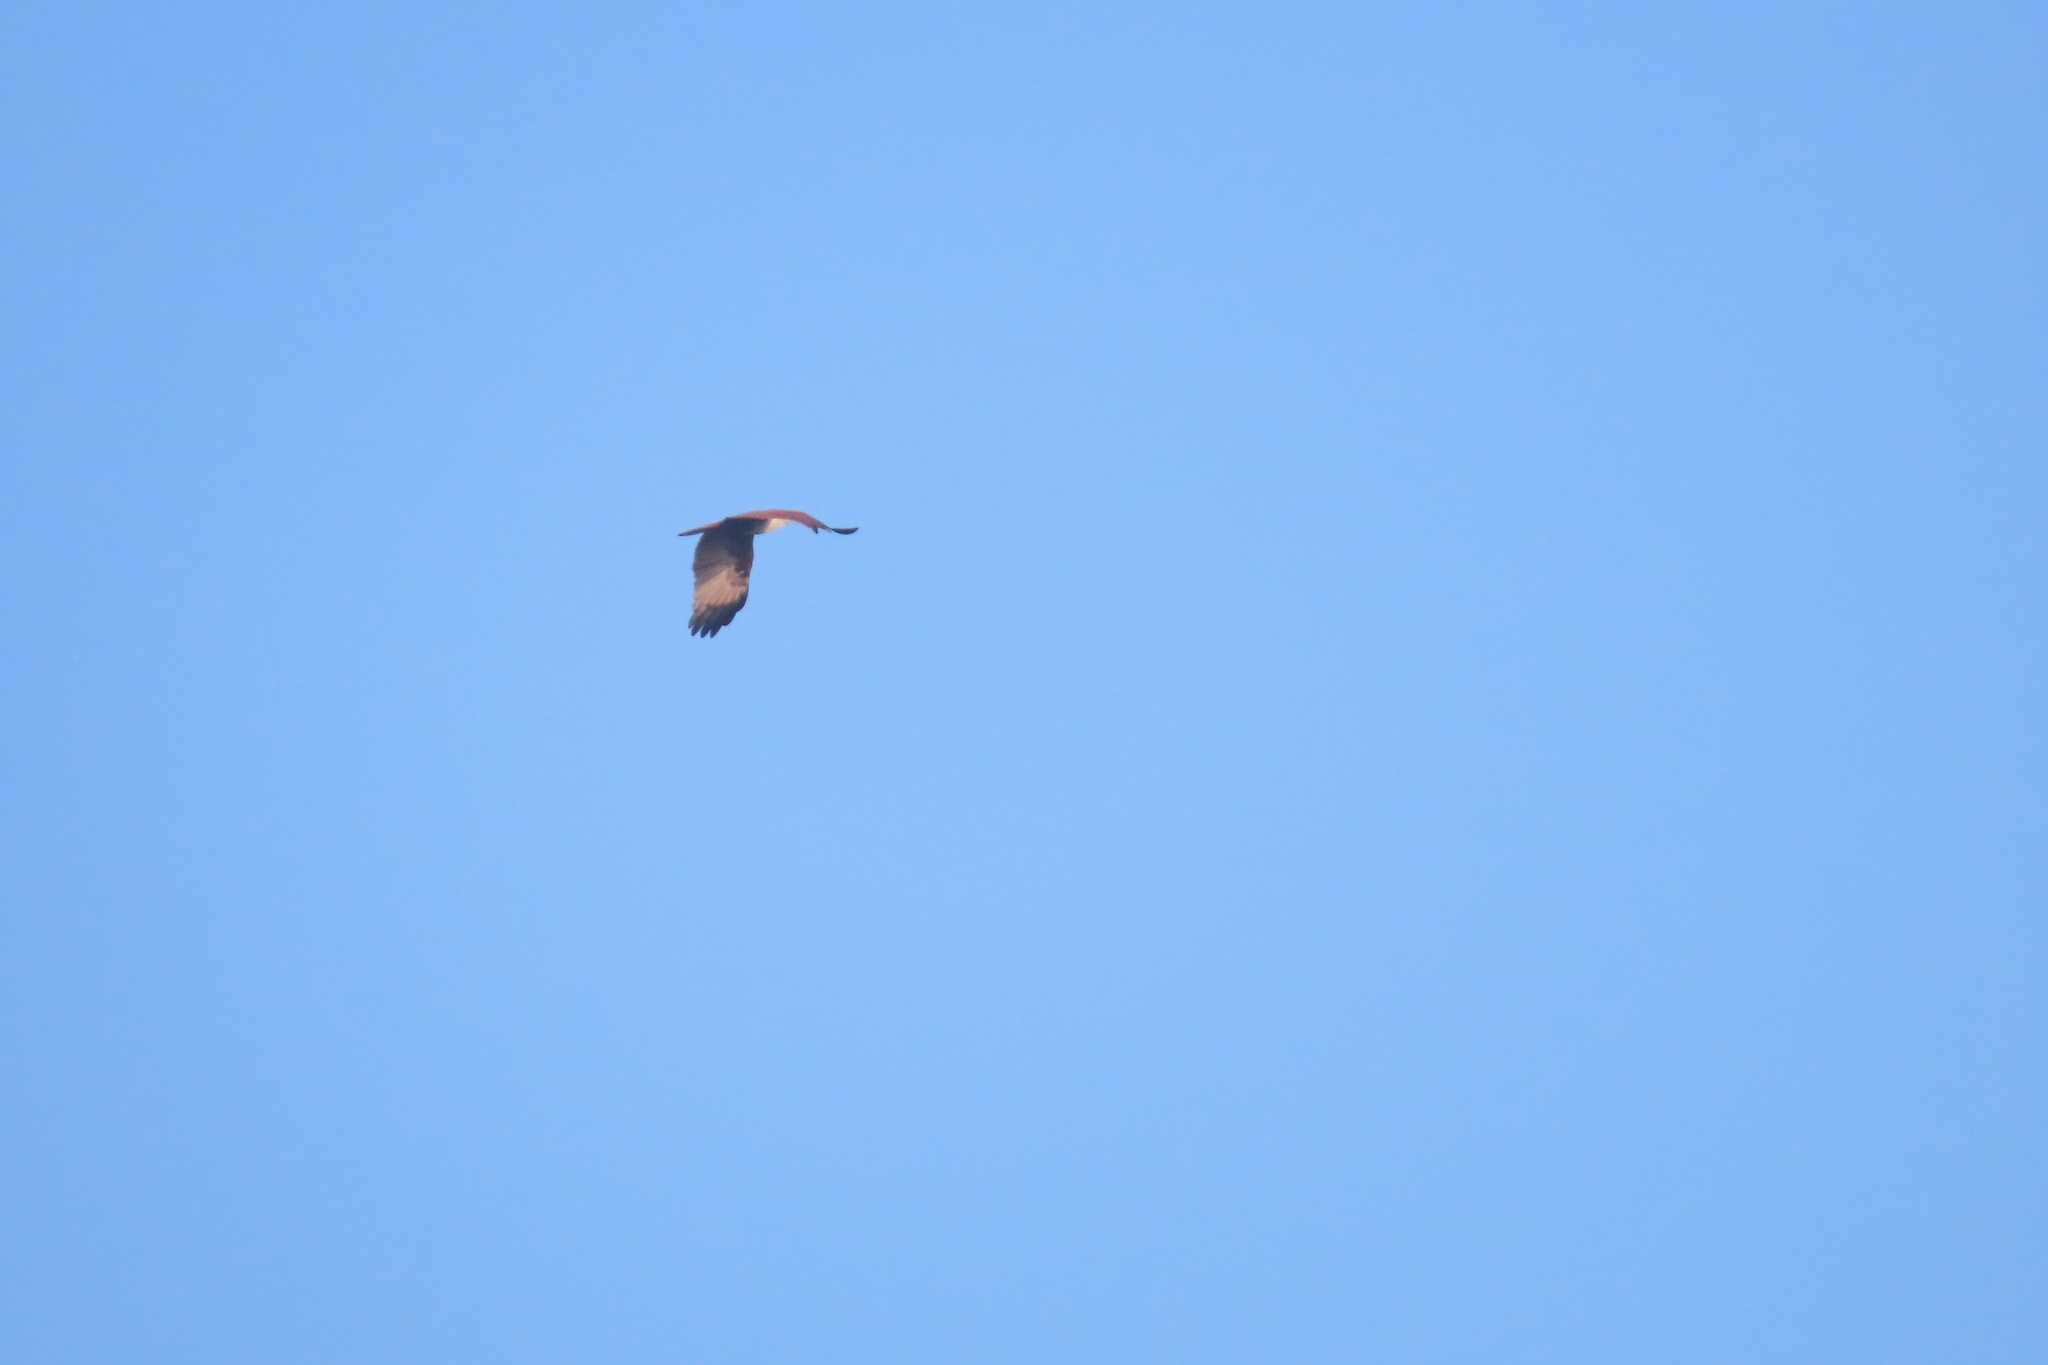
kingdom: Animalia
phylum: Chordata
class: Aves
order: Accipitriformes
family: Accipitridae
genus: Haliastur
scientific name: Haliastur indus
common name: Brahminy kite
